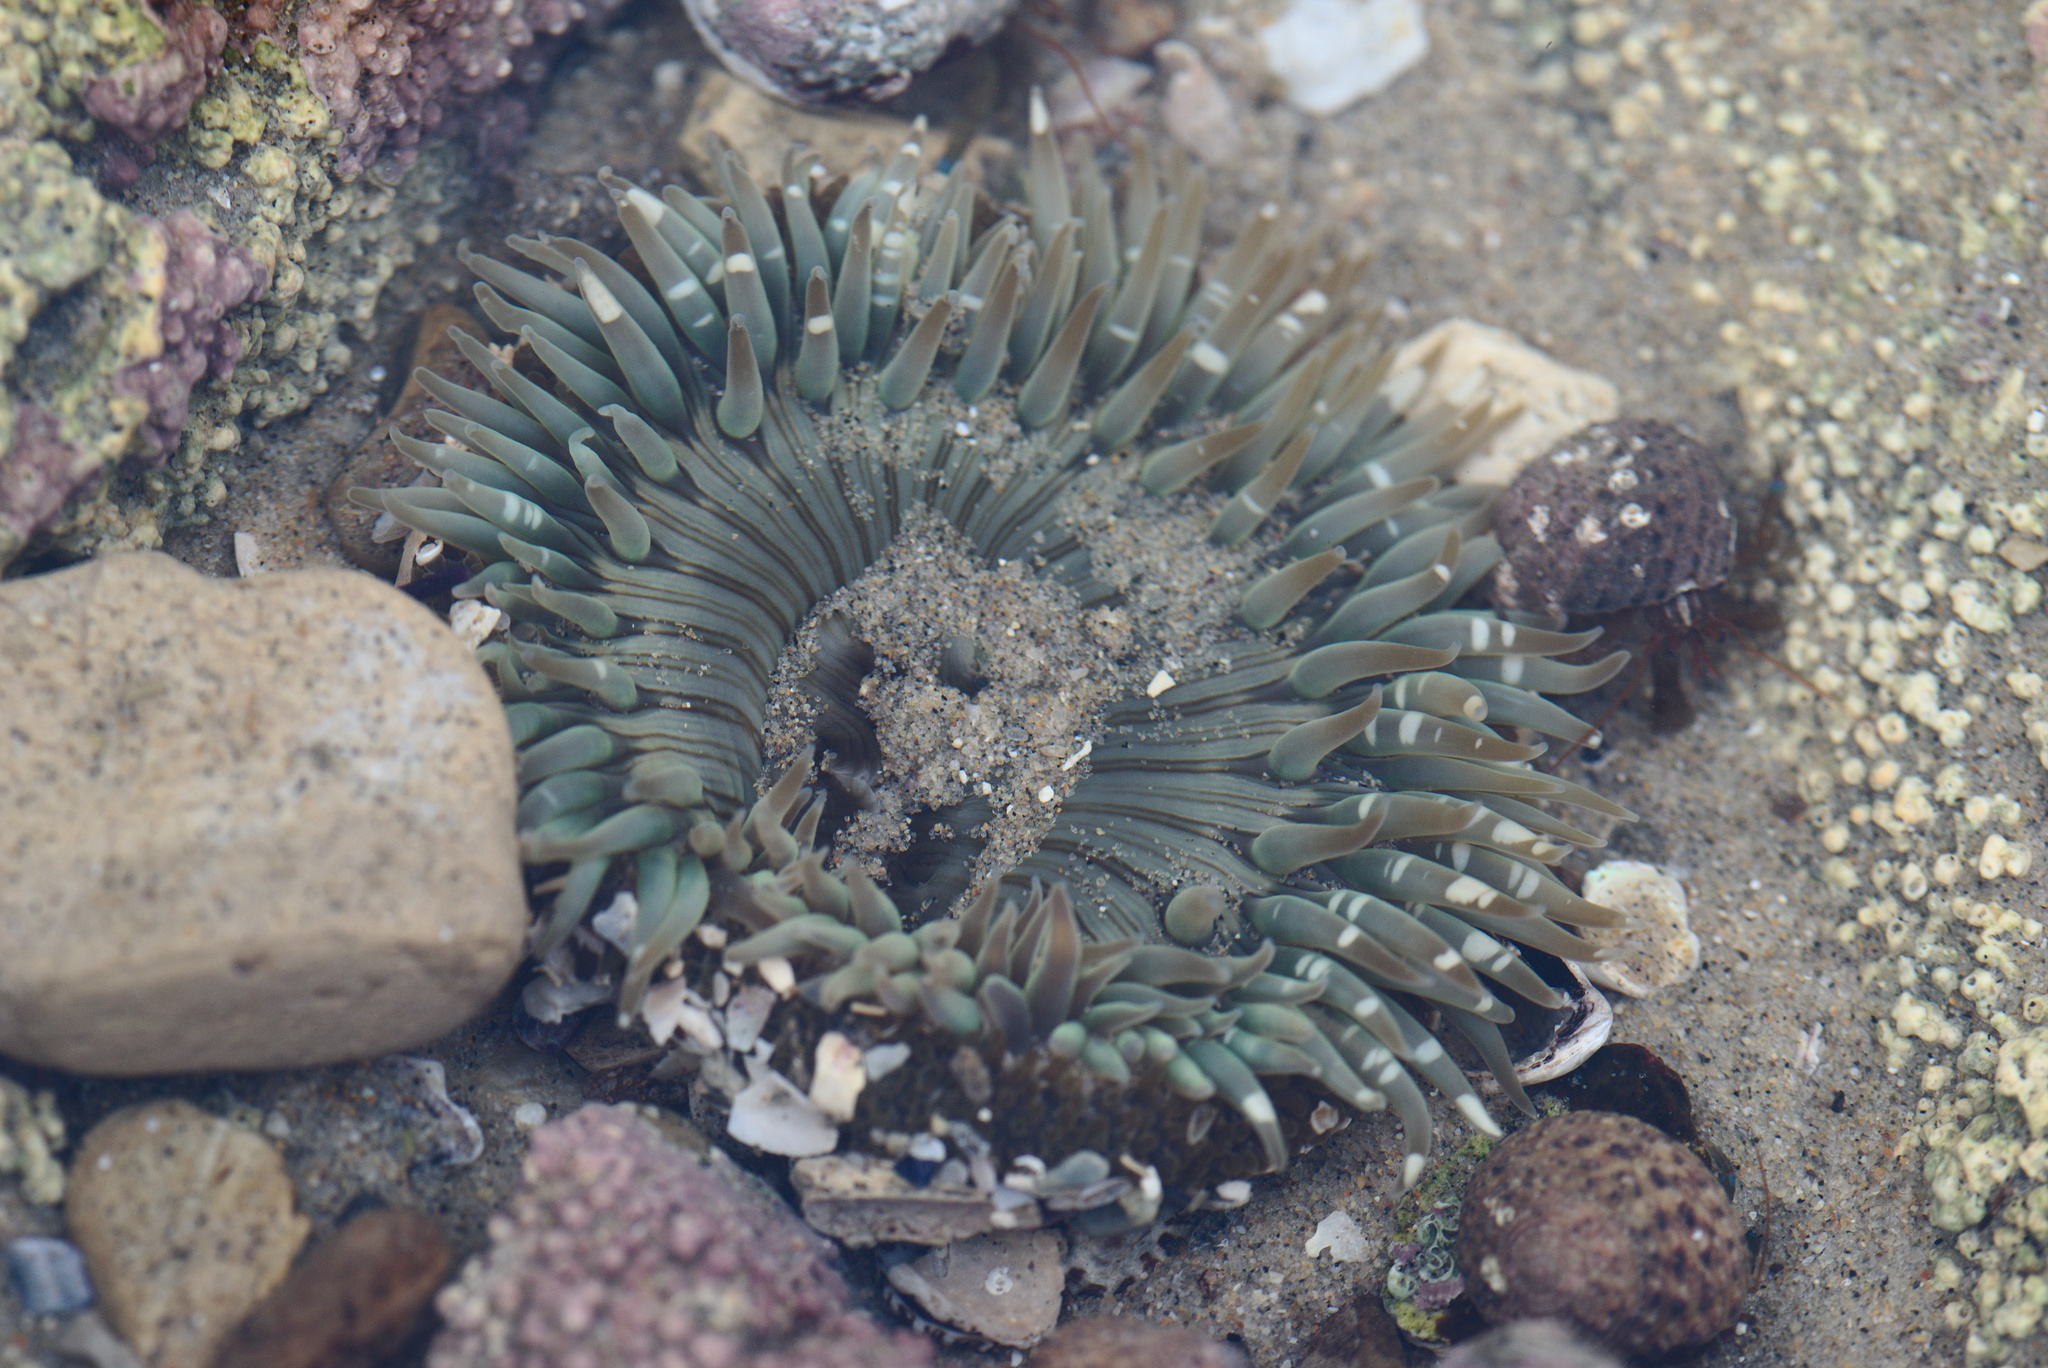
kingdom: Animalia
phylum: Cnidaria
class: Anthozoa
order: Actiniaria
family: Actiniidae
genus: Anthopleura
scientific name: Anthopleura sola
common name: Sun anemone
